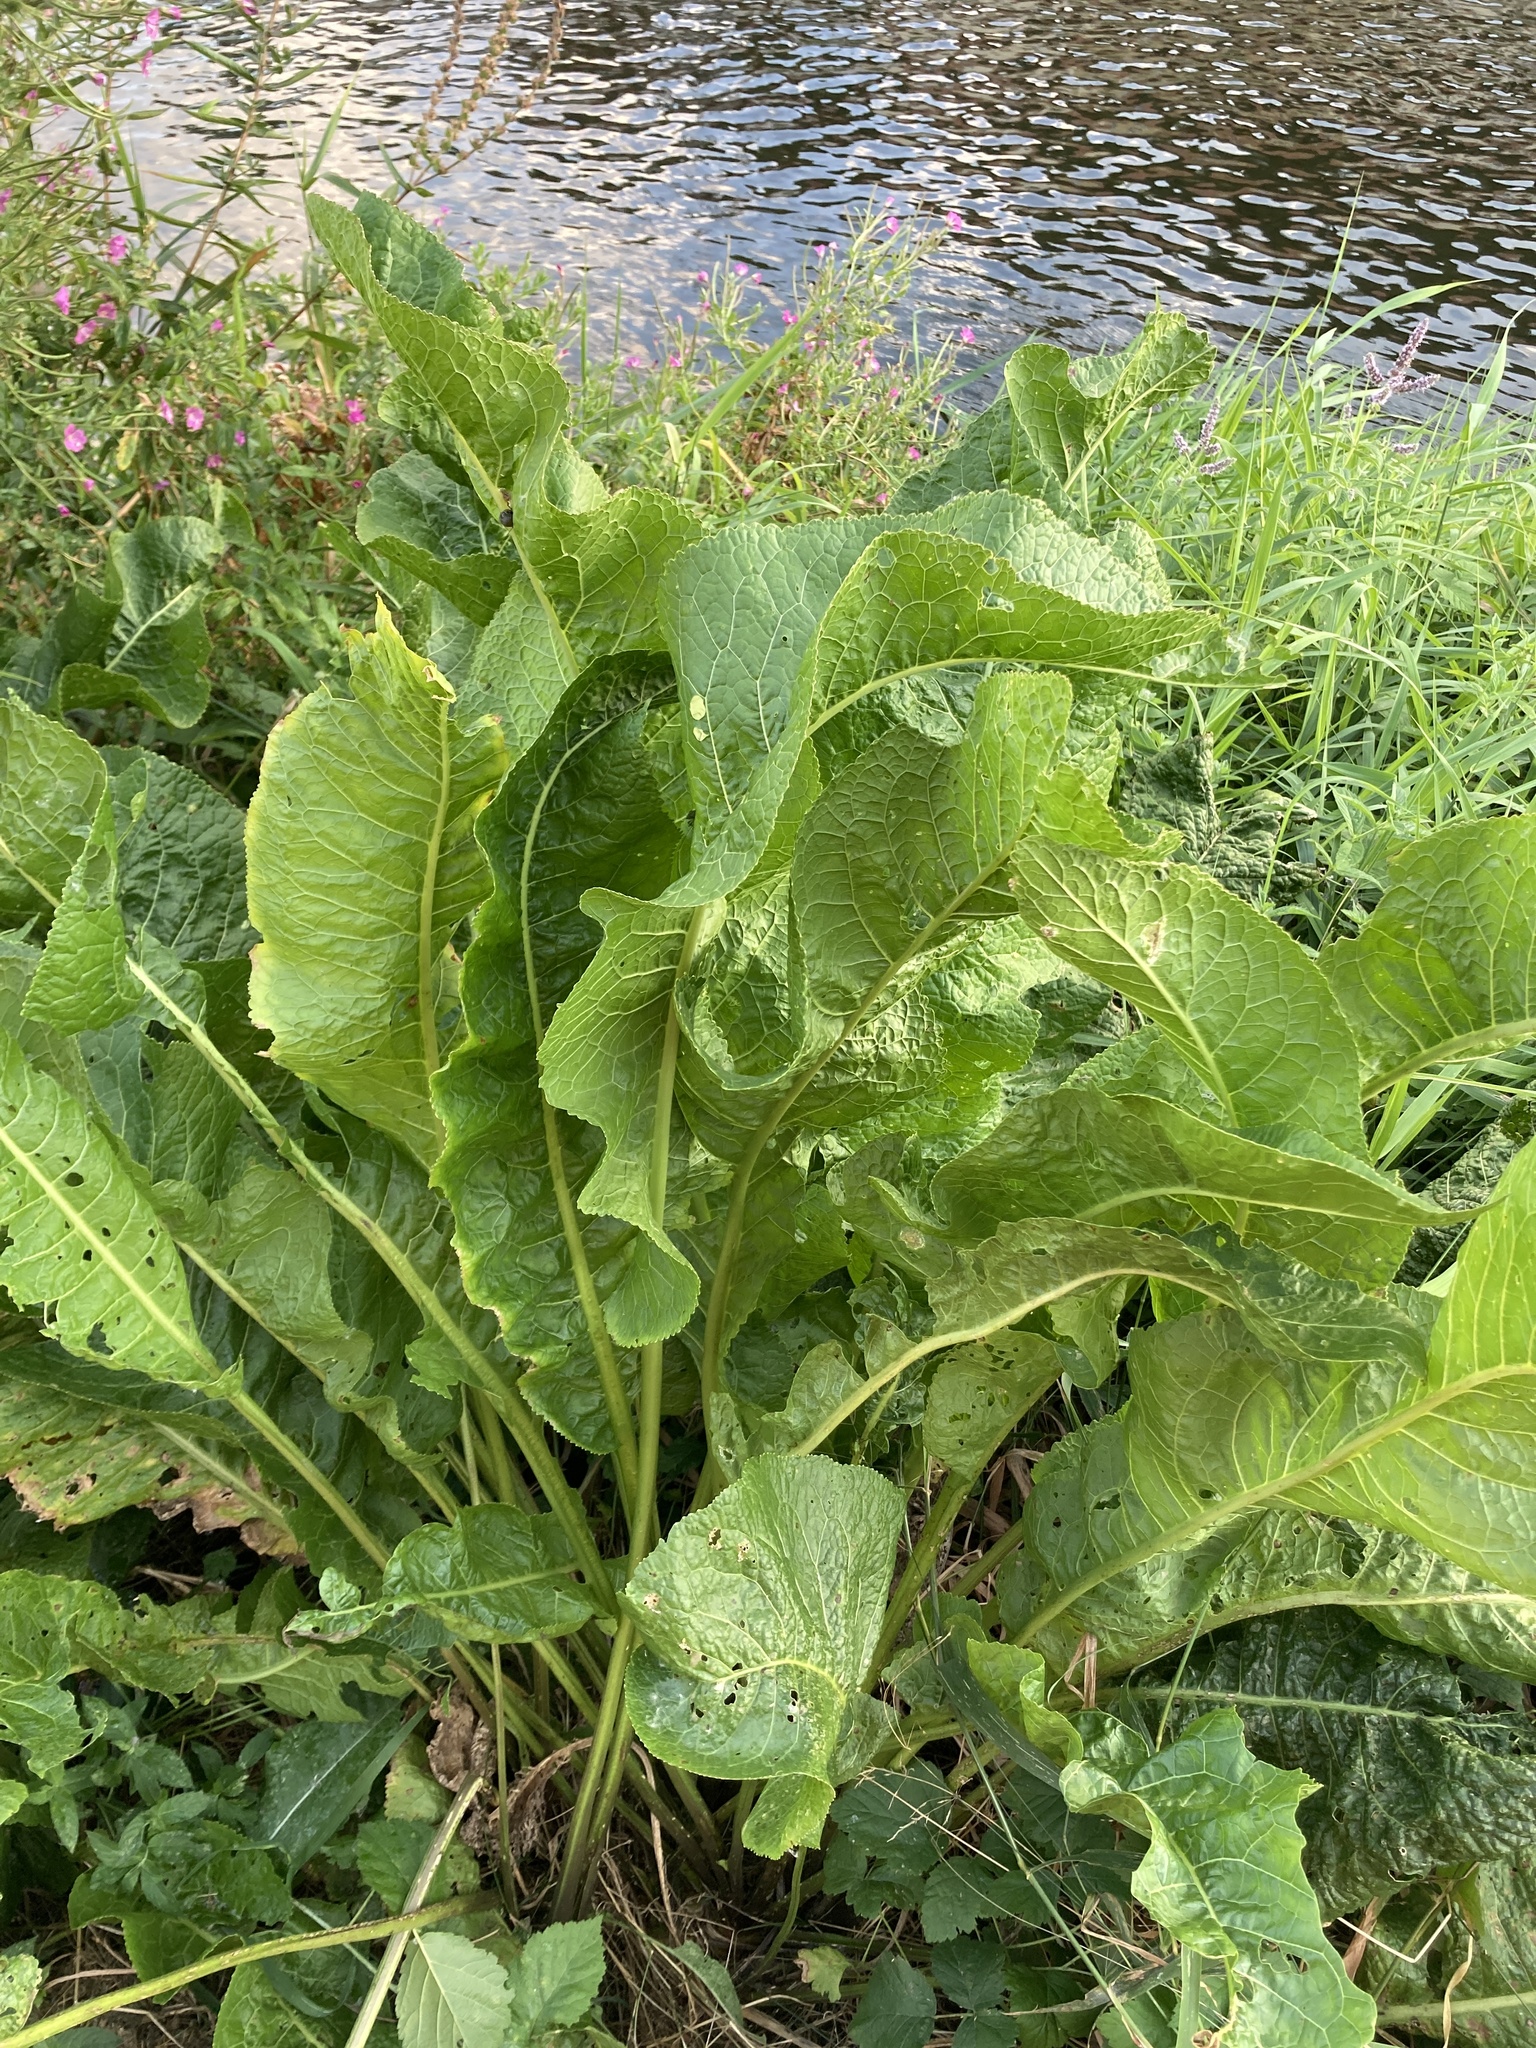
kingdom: Plantae
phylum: Tracheophyta
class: Magnoliopsida
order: Brassicales
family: Brassicaceae
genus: Armoracia
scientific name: Armoracia rusticana
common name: Horseradish
